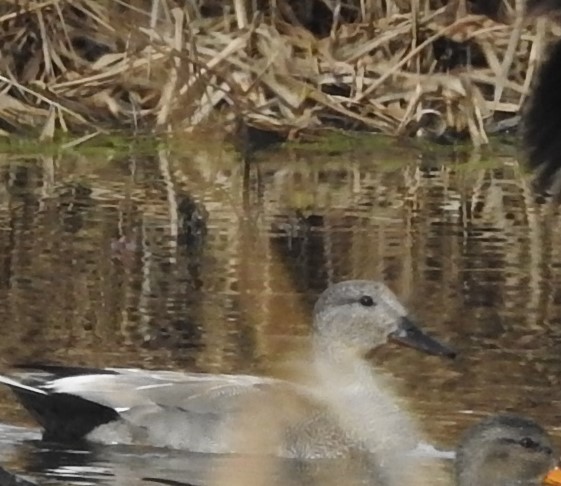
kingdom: Animalia
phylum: Chordata
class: Aves
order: Anseriformes
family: Anatidae
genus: Mareca
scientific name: Mareca strepera
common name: Gadwall
